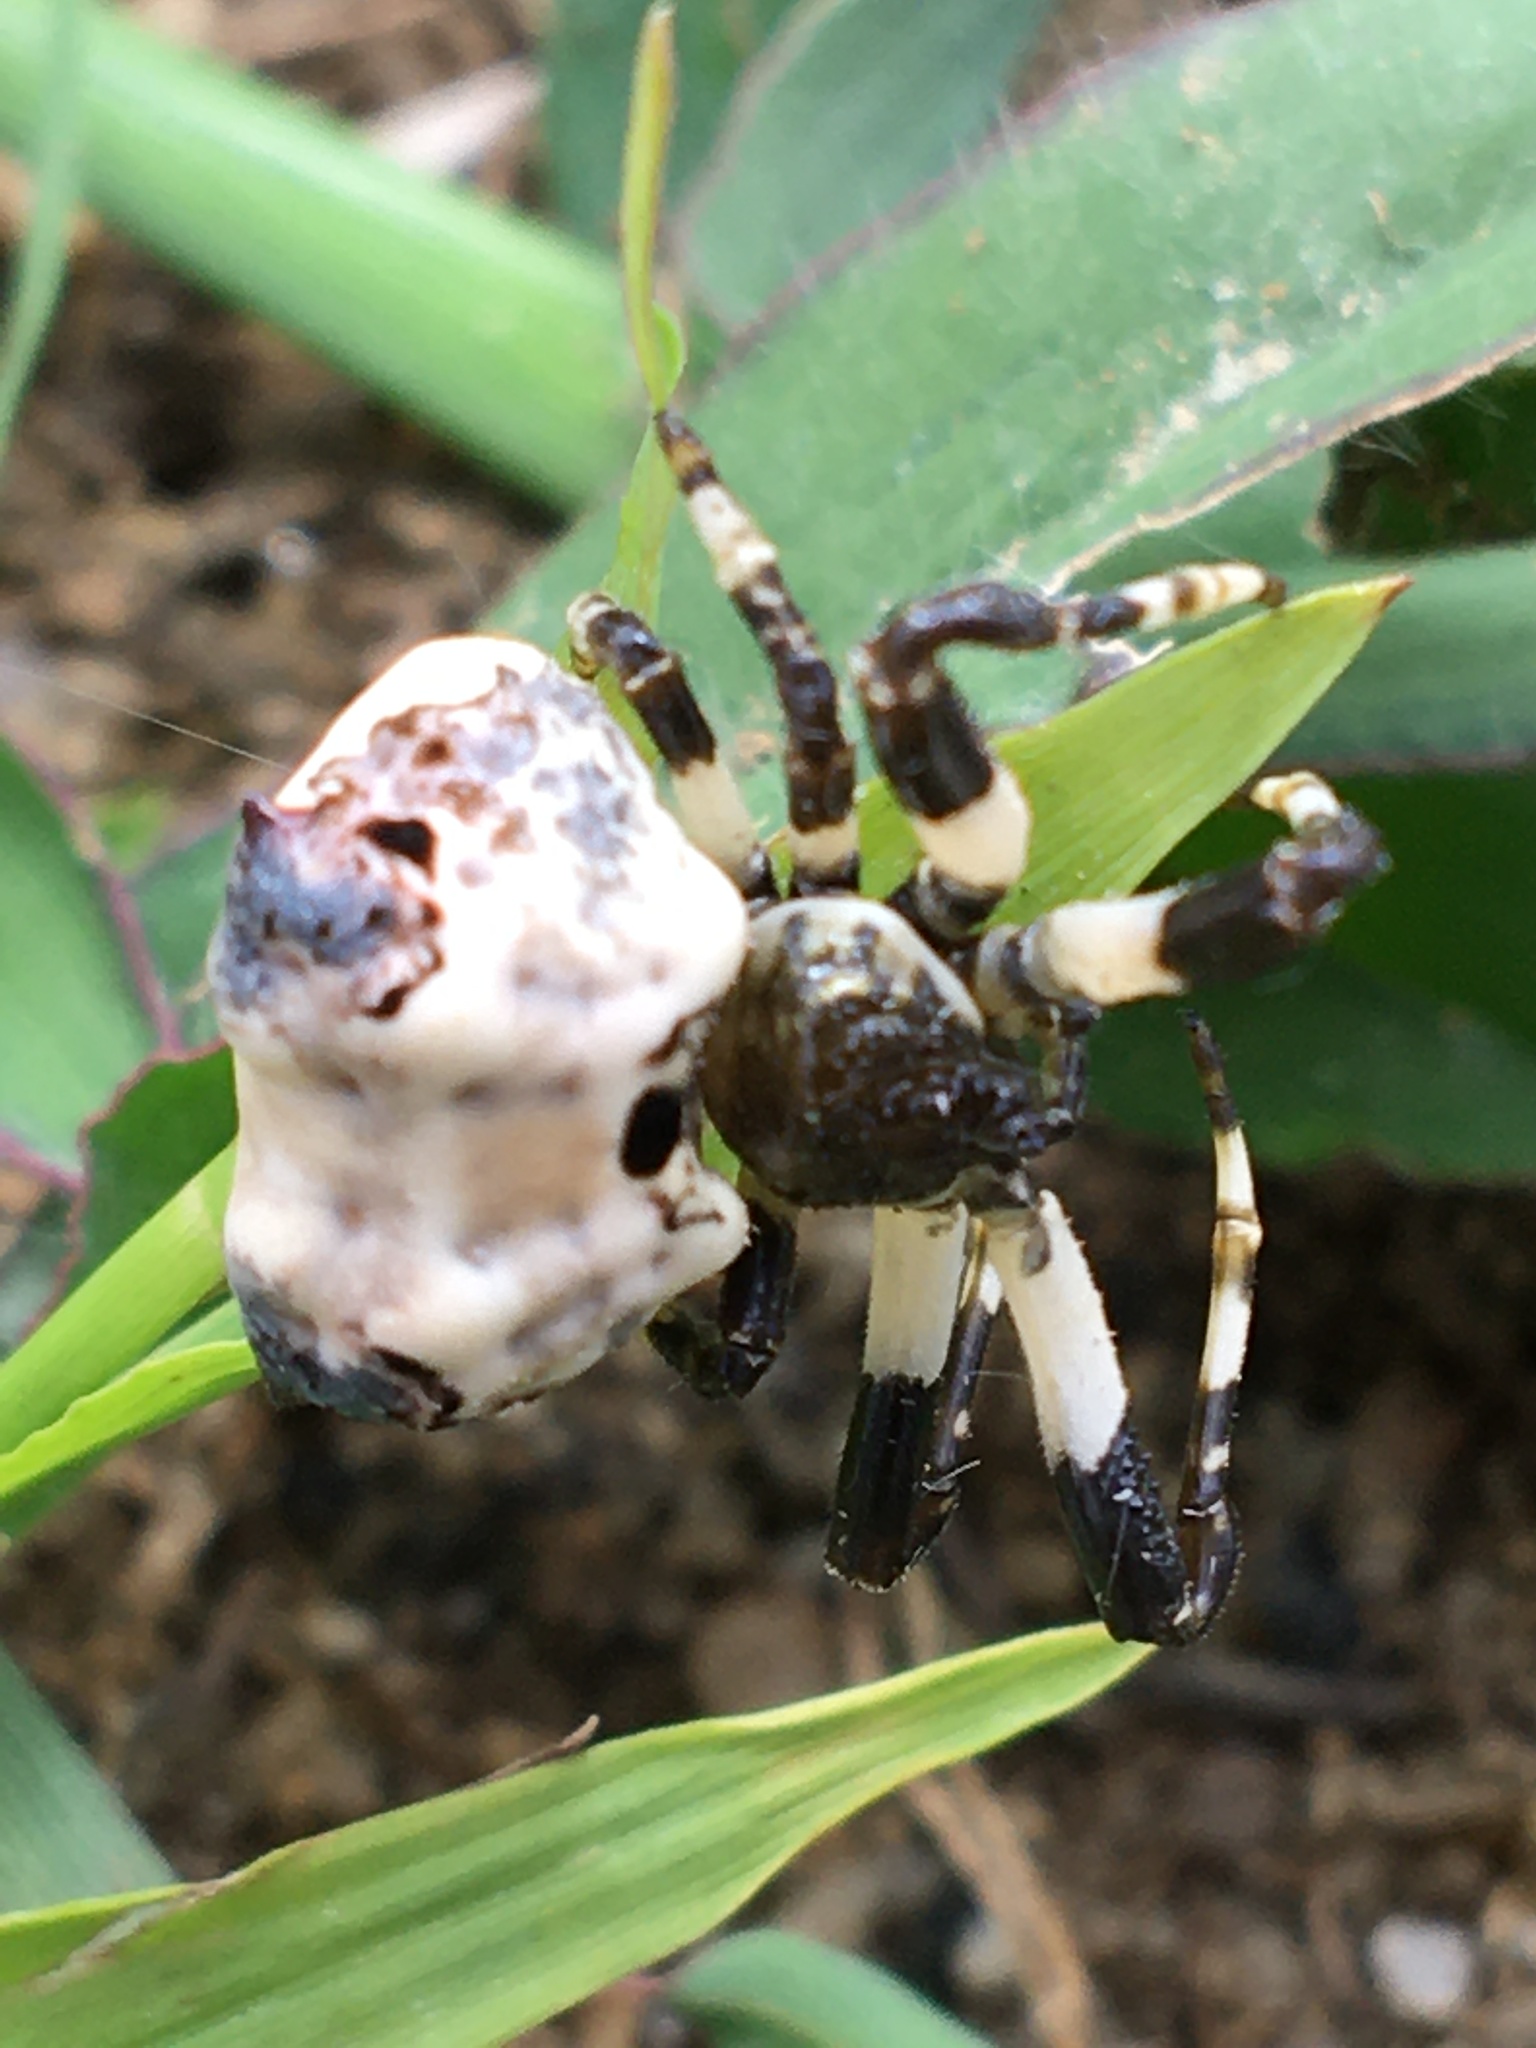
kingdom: Animalia
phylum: Arthropoda
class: Arachnida
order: Araneae
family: Araneidae
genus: Celaenia
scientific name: Celaenia excavata
